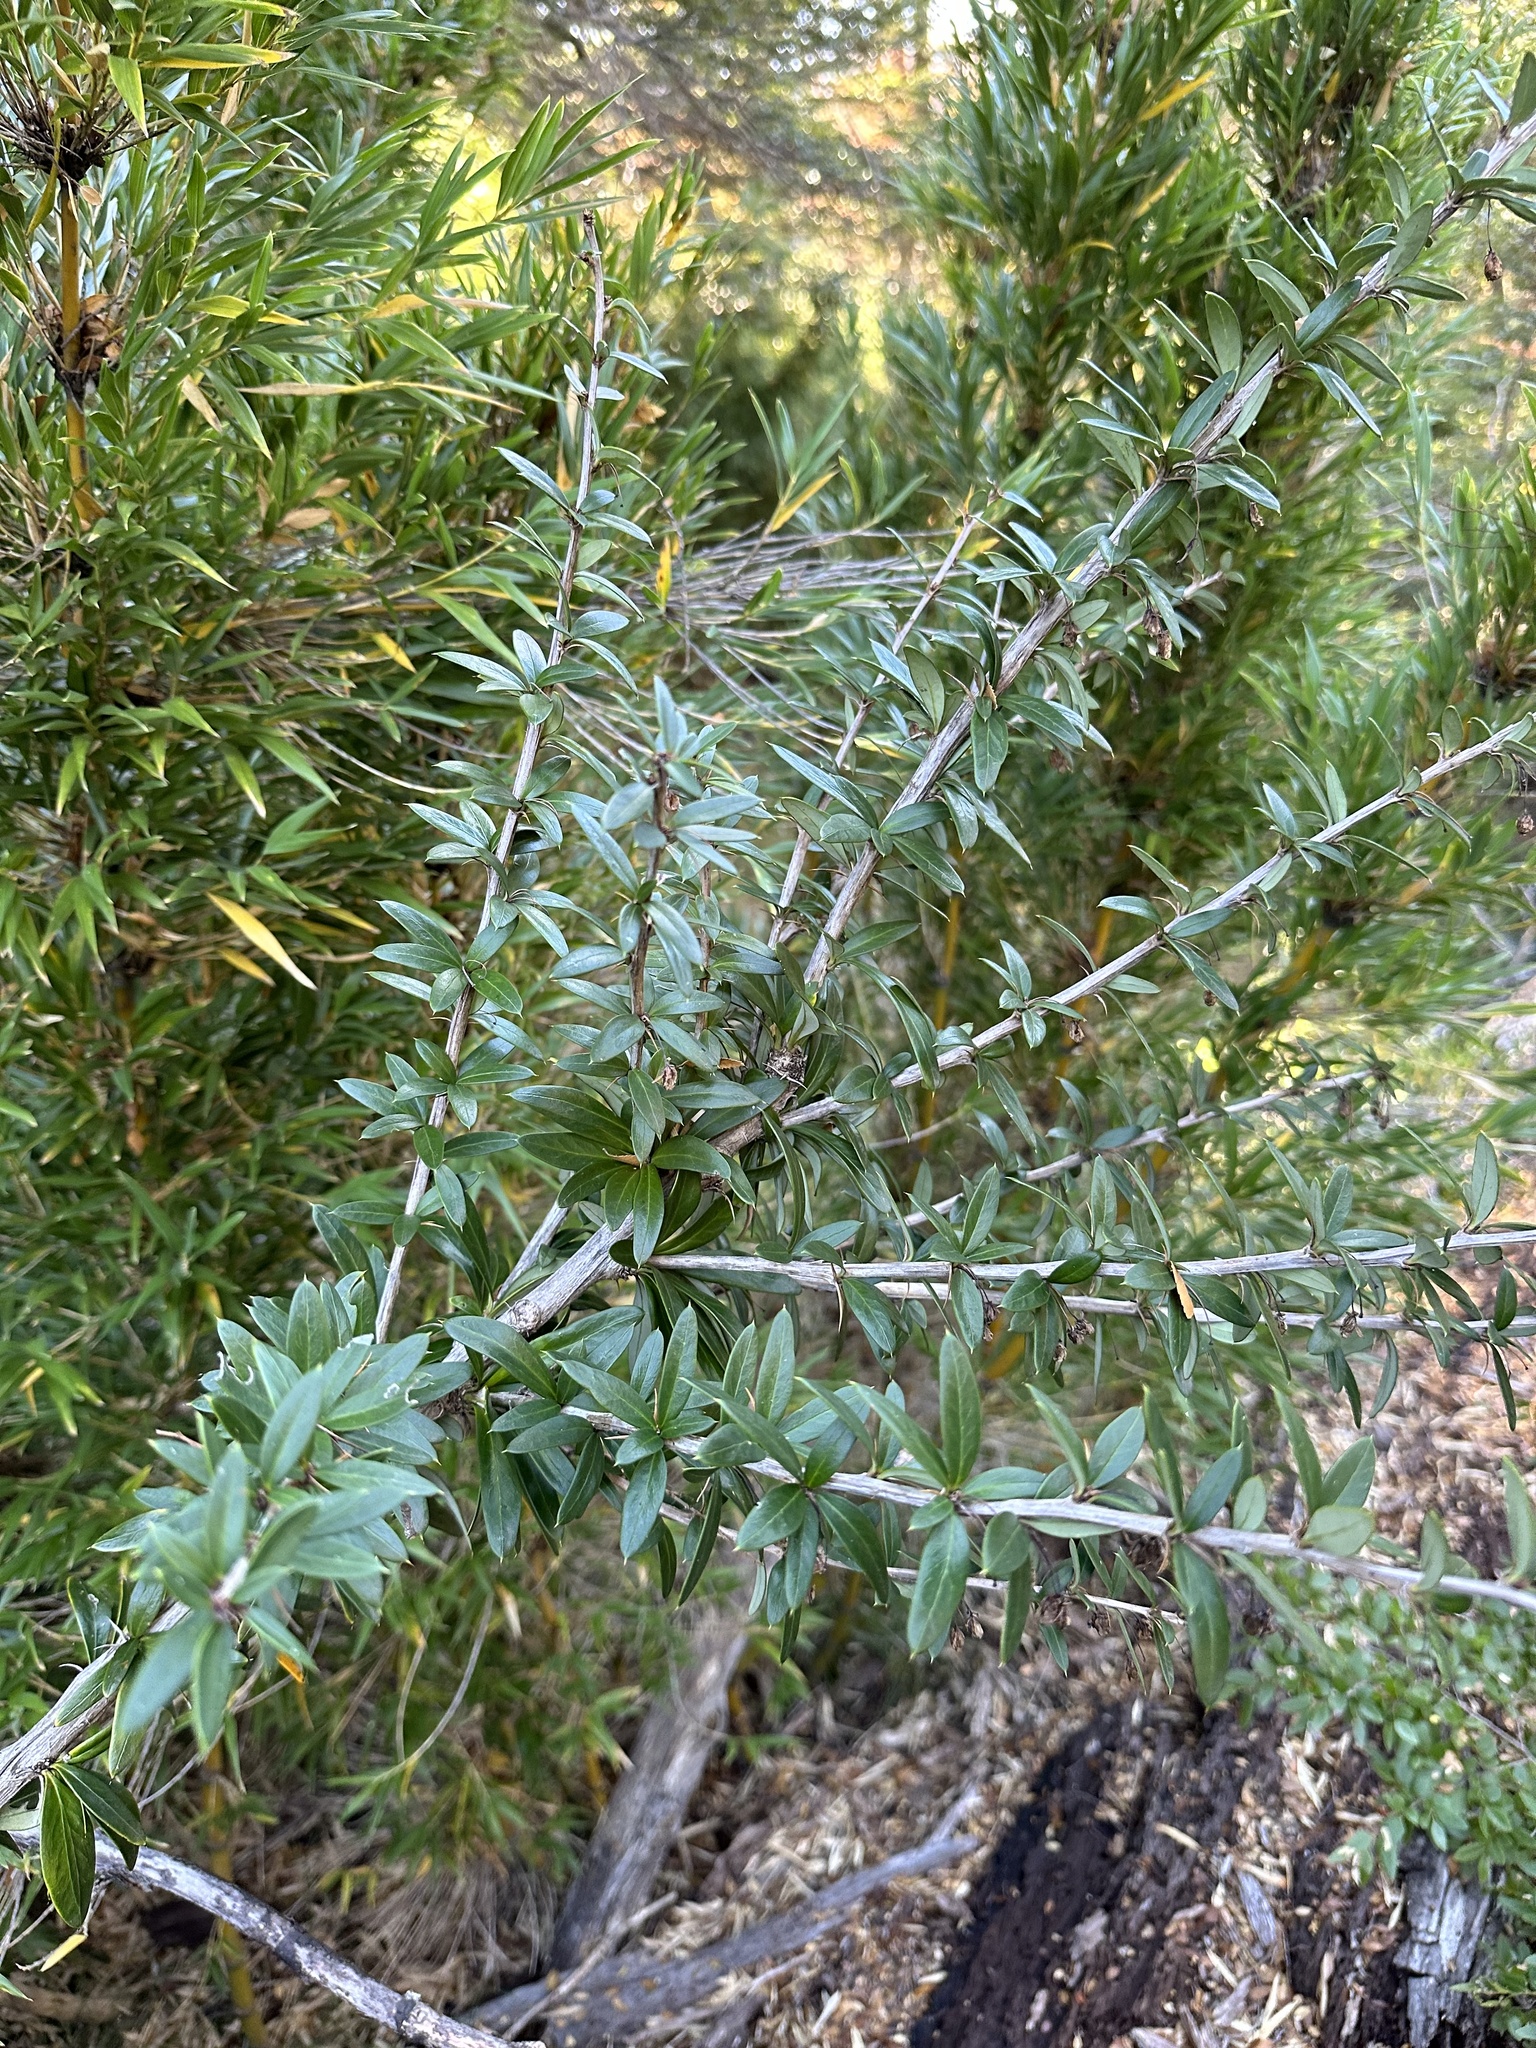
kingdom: Plantae
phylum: Tracheophyta
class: Magnoliopsida
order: Ranunculales
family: Berberidaceae
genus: Berberis
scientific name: Berberis trigona
